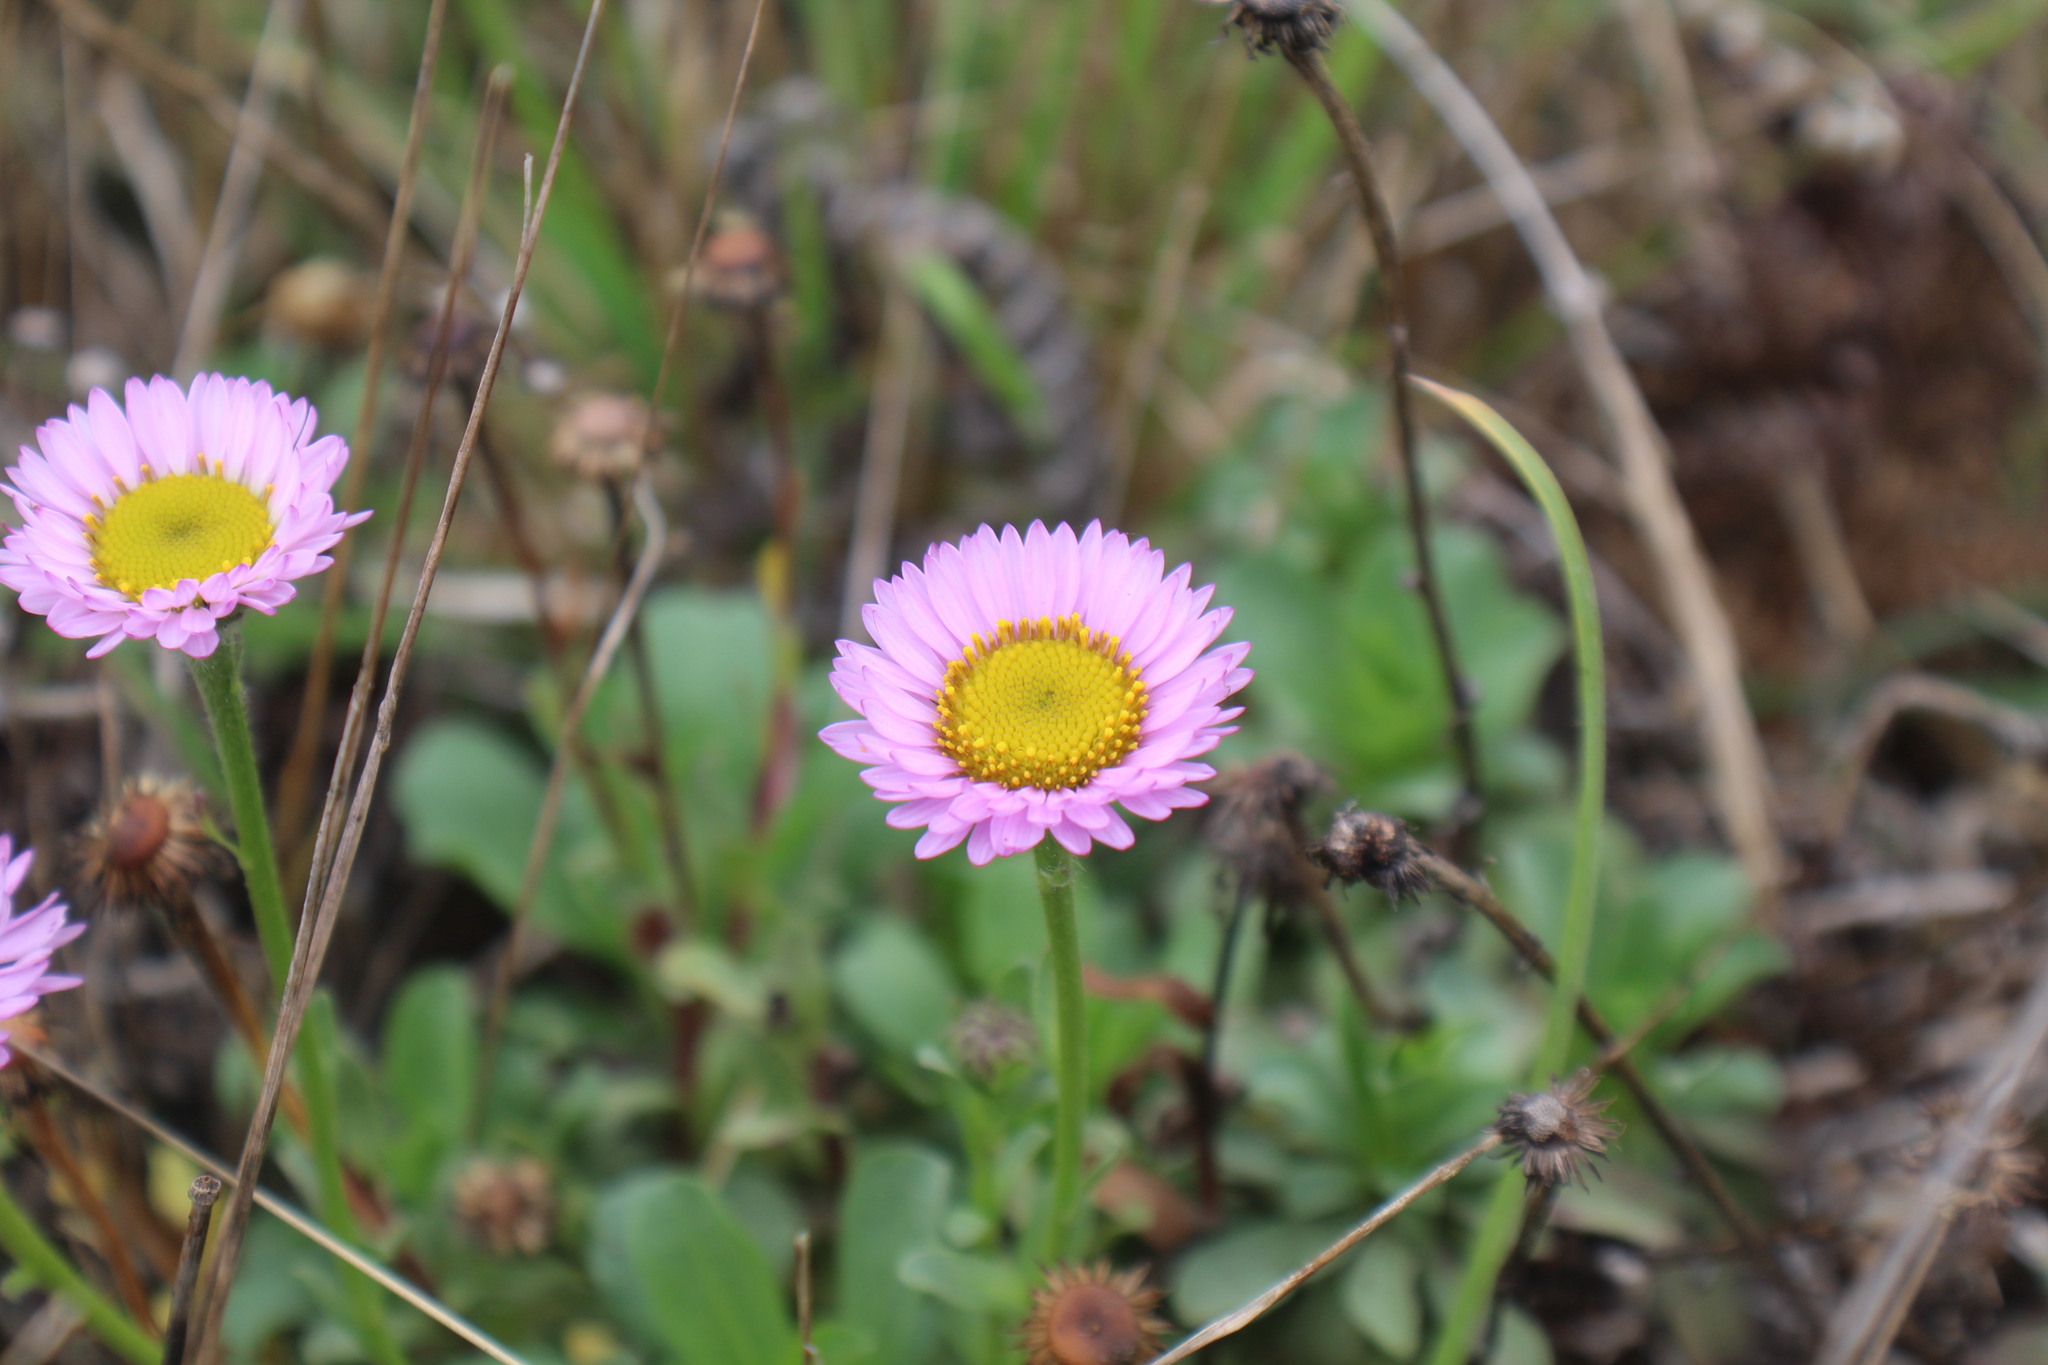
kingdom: Plantae
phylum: Tracheophyta
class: Magnoliopsida
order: Asterales
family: Asteraceae
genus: Erigeron
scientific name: Erigeron glaucus
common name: Seaside daisy
